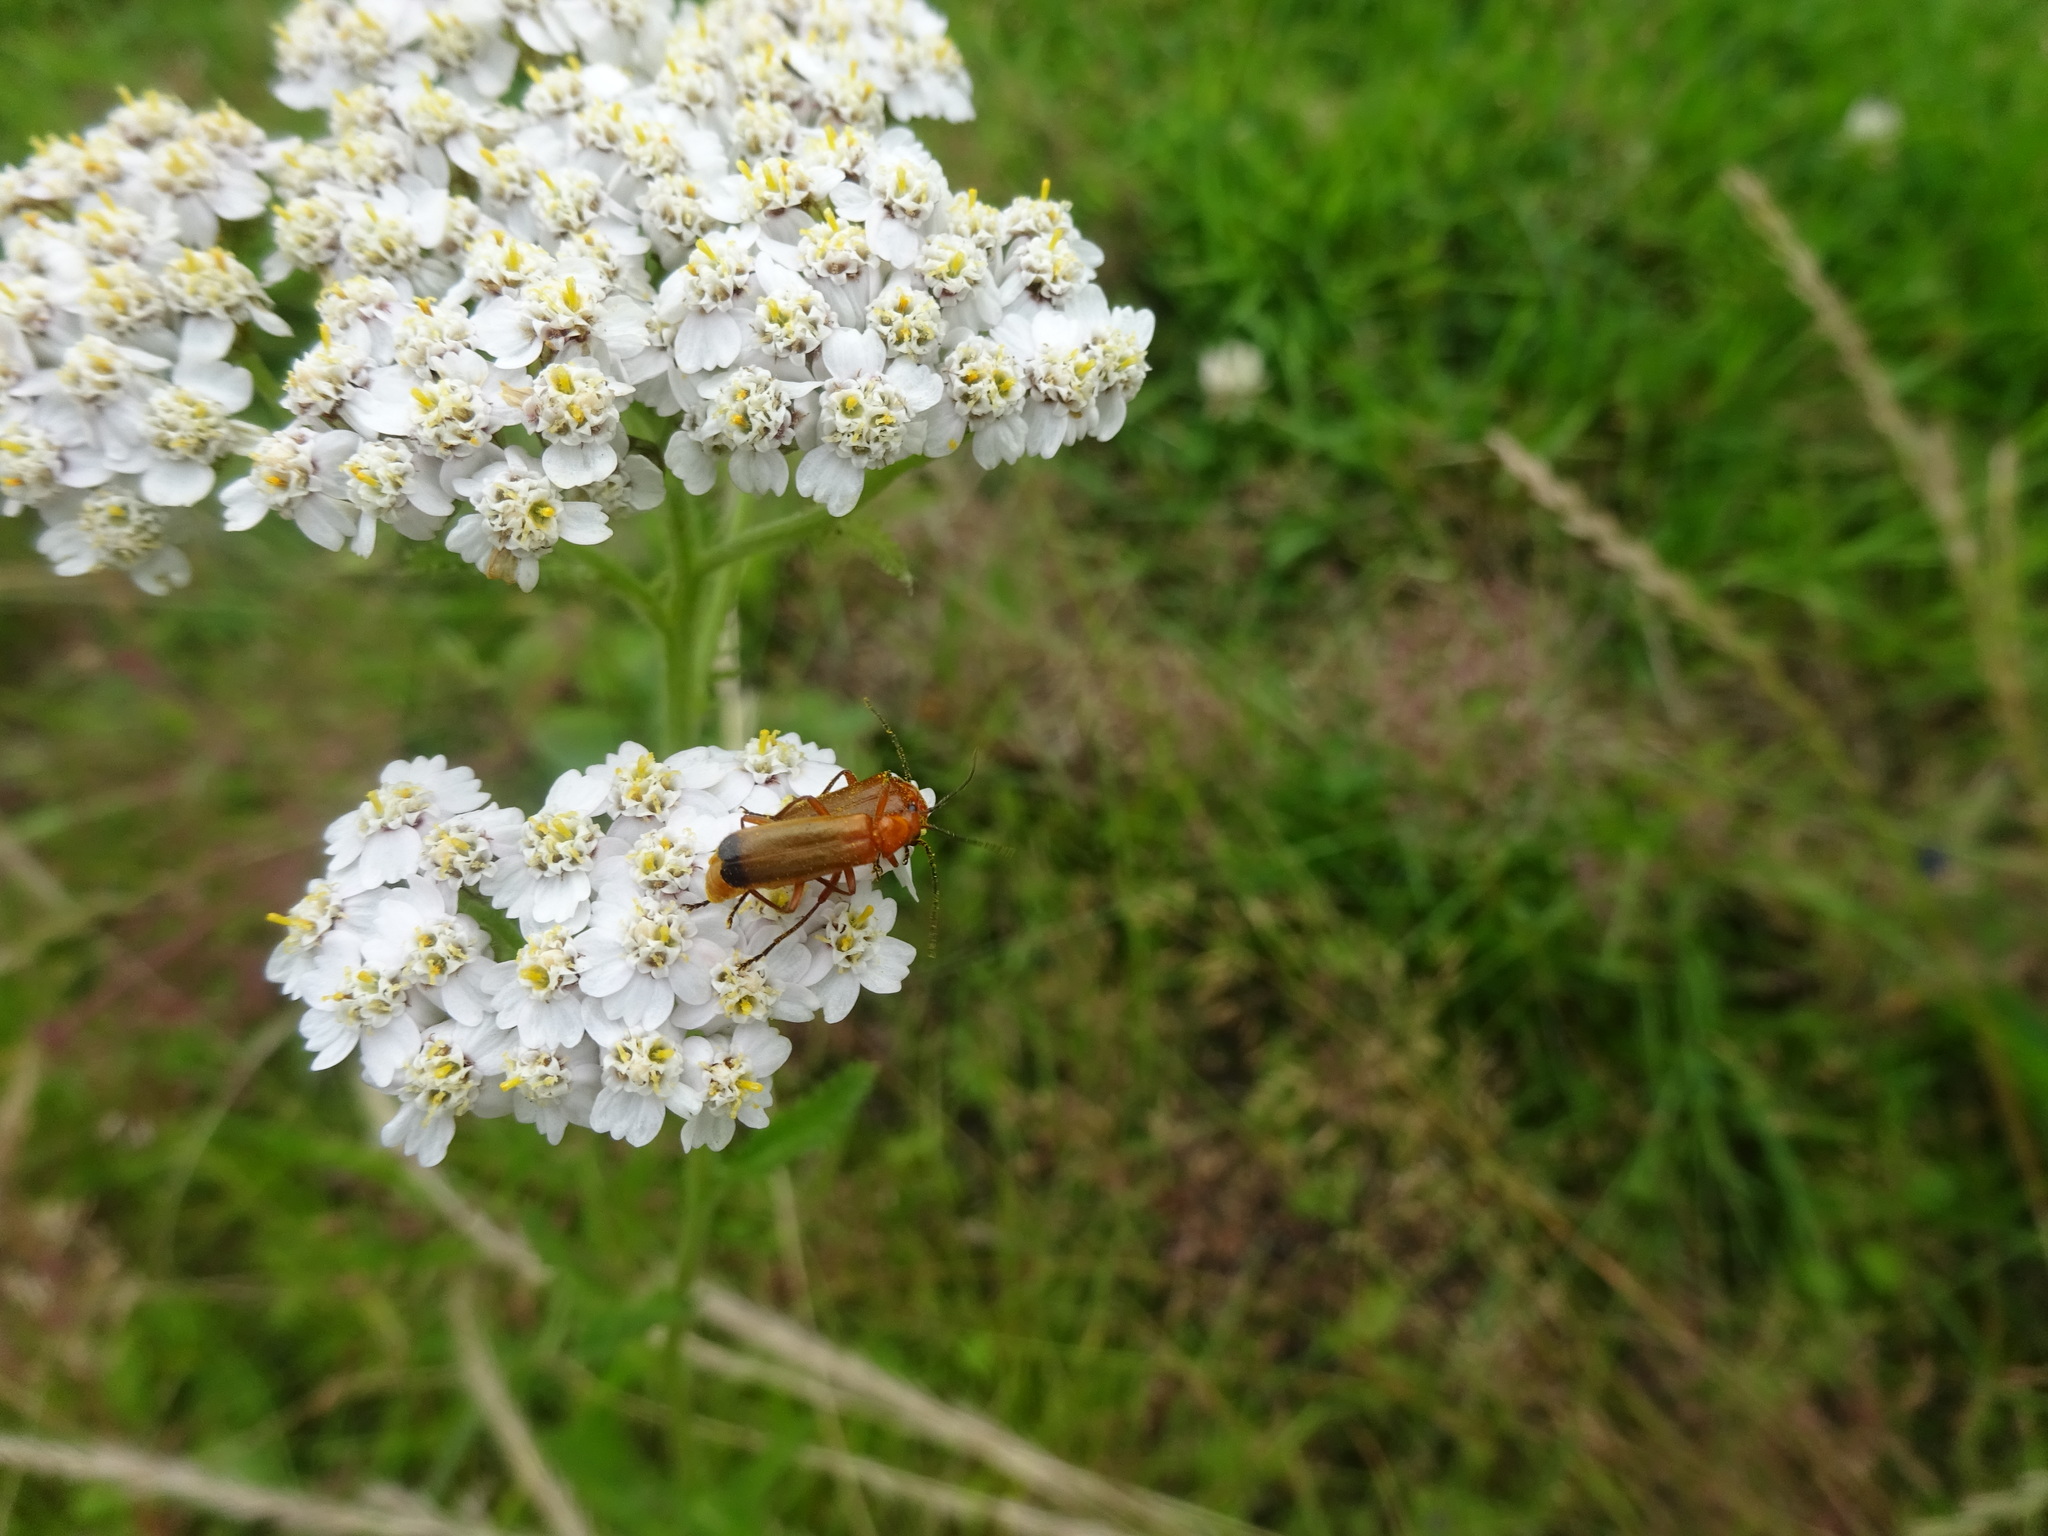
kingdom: Animalia
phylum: Arthropoda
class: Insecta
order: Coleoptera
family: Cantharidae
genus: Rhagonycha
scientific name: Rhagonycha fulva
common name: Common red soldier beetle
